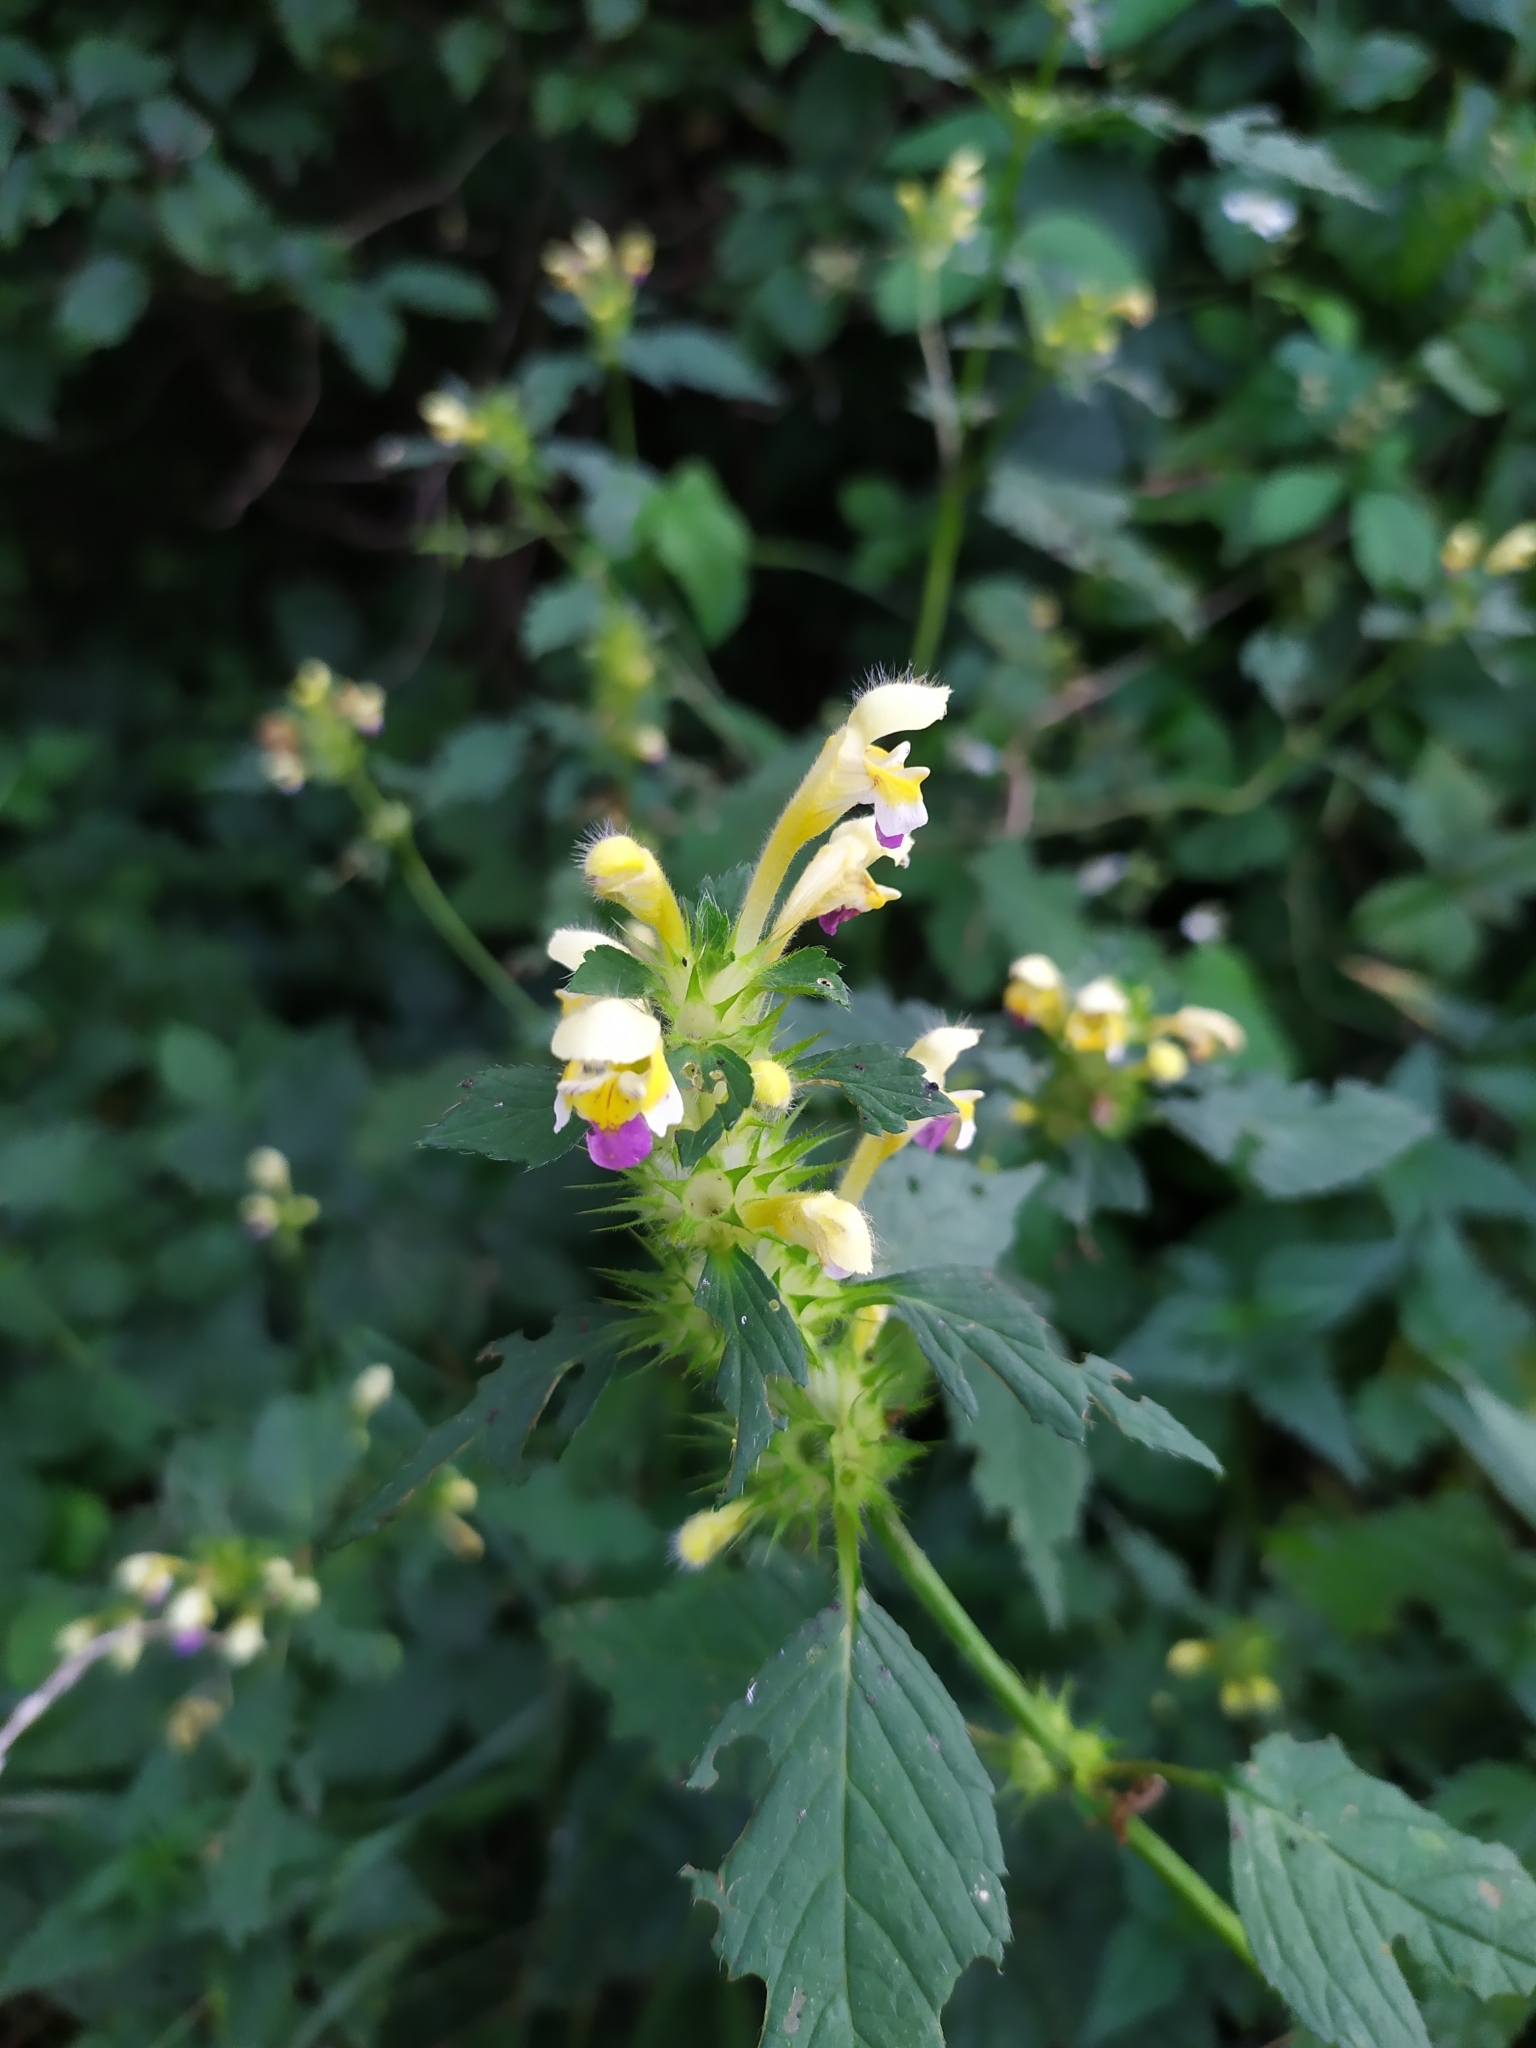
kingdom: Plantae
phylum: Tracheophyta
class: Magnoliopsida
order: Lamiales
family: Lamiaceae
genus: Galeopsis
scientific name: Galeopsis speciosa
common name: Large-flowered hemp-nettle
